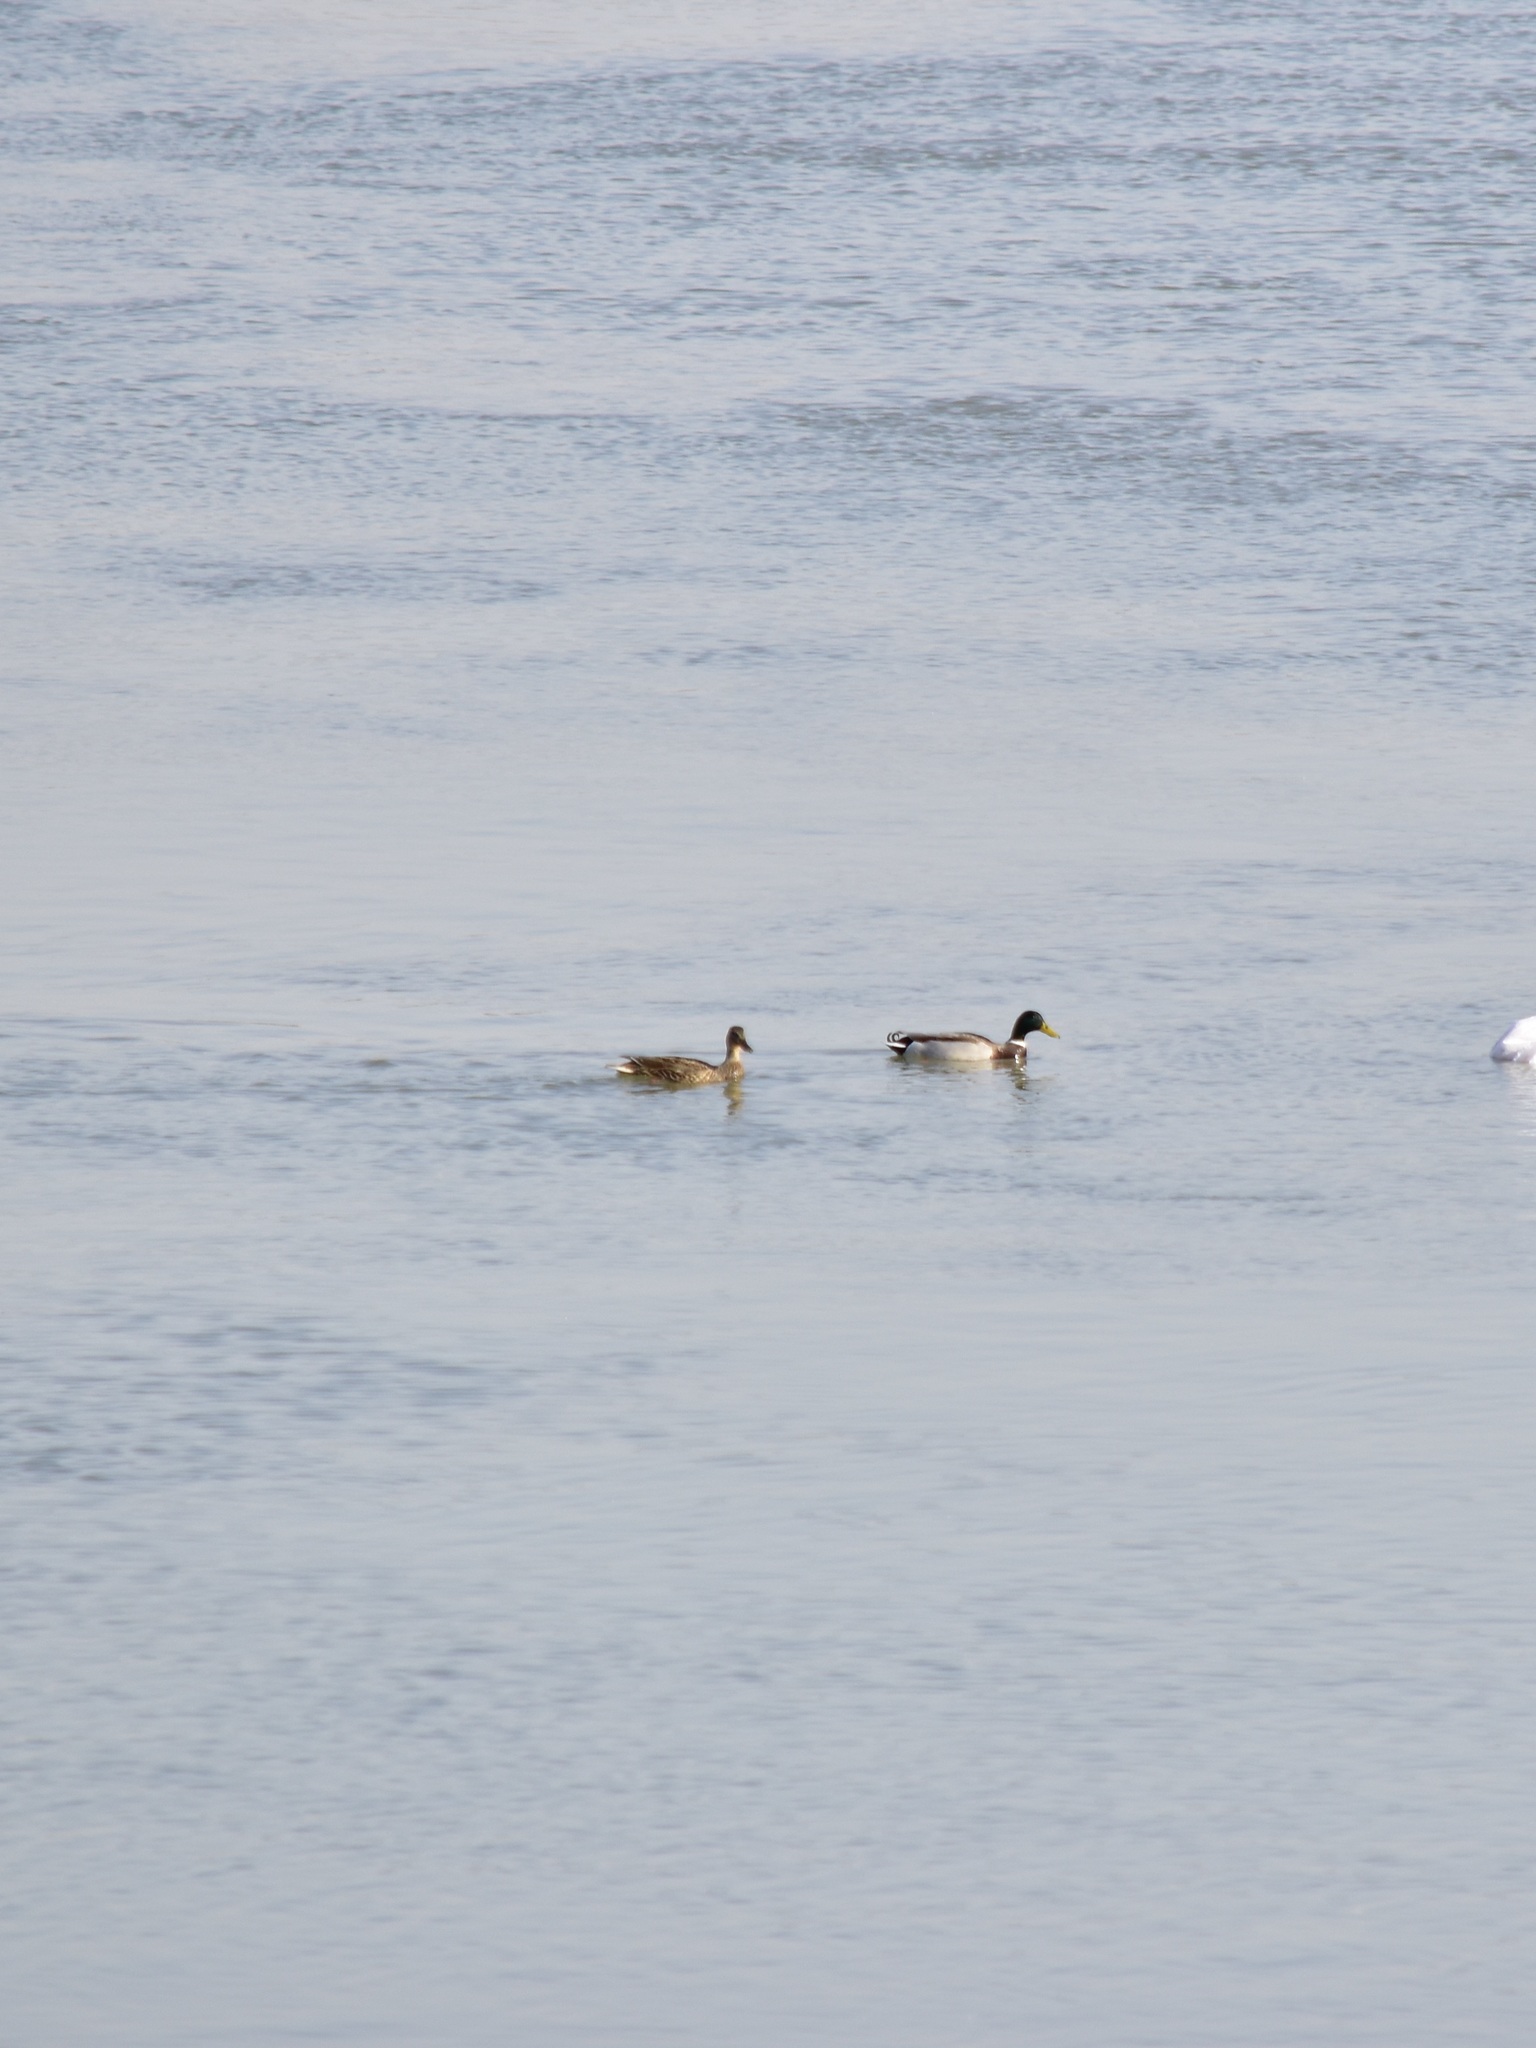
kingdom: Animalia
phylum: Chordata
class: Aves
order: Anseriformes
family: Anatidae
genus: Anas
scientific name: Anas platyrhynchos
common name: Mallard
